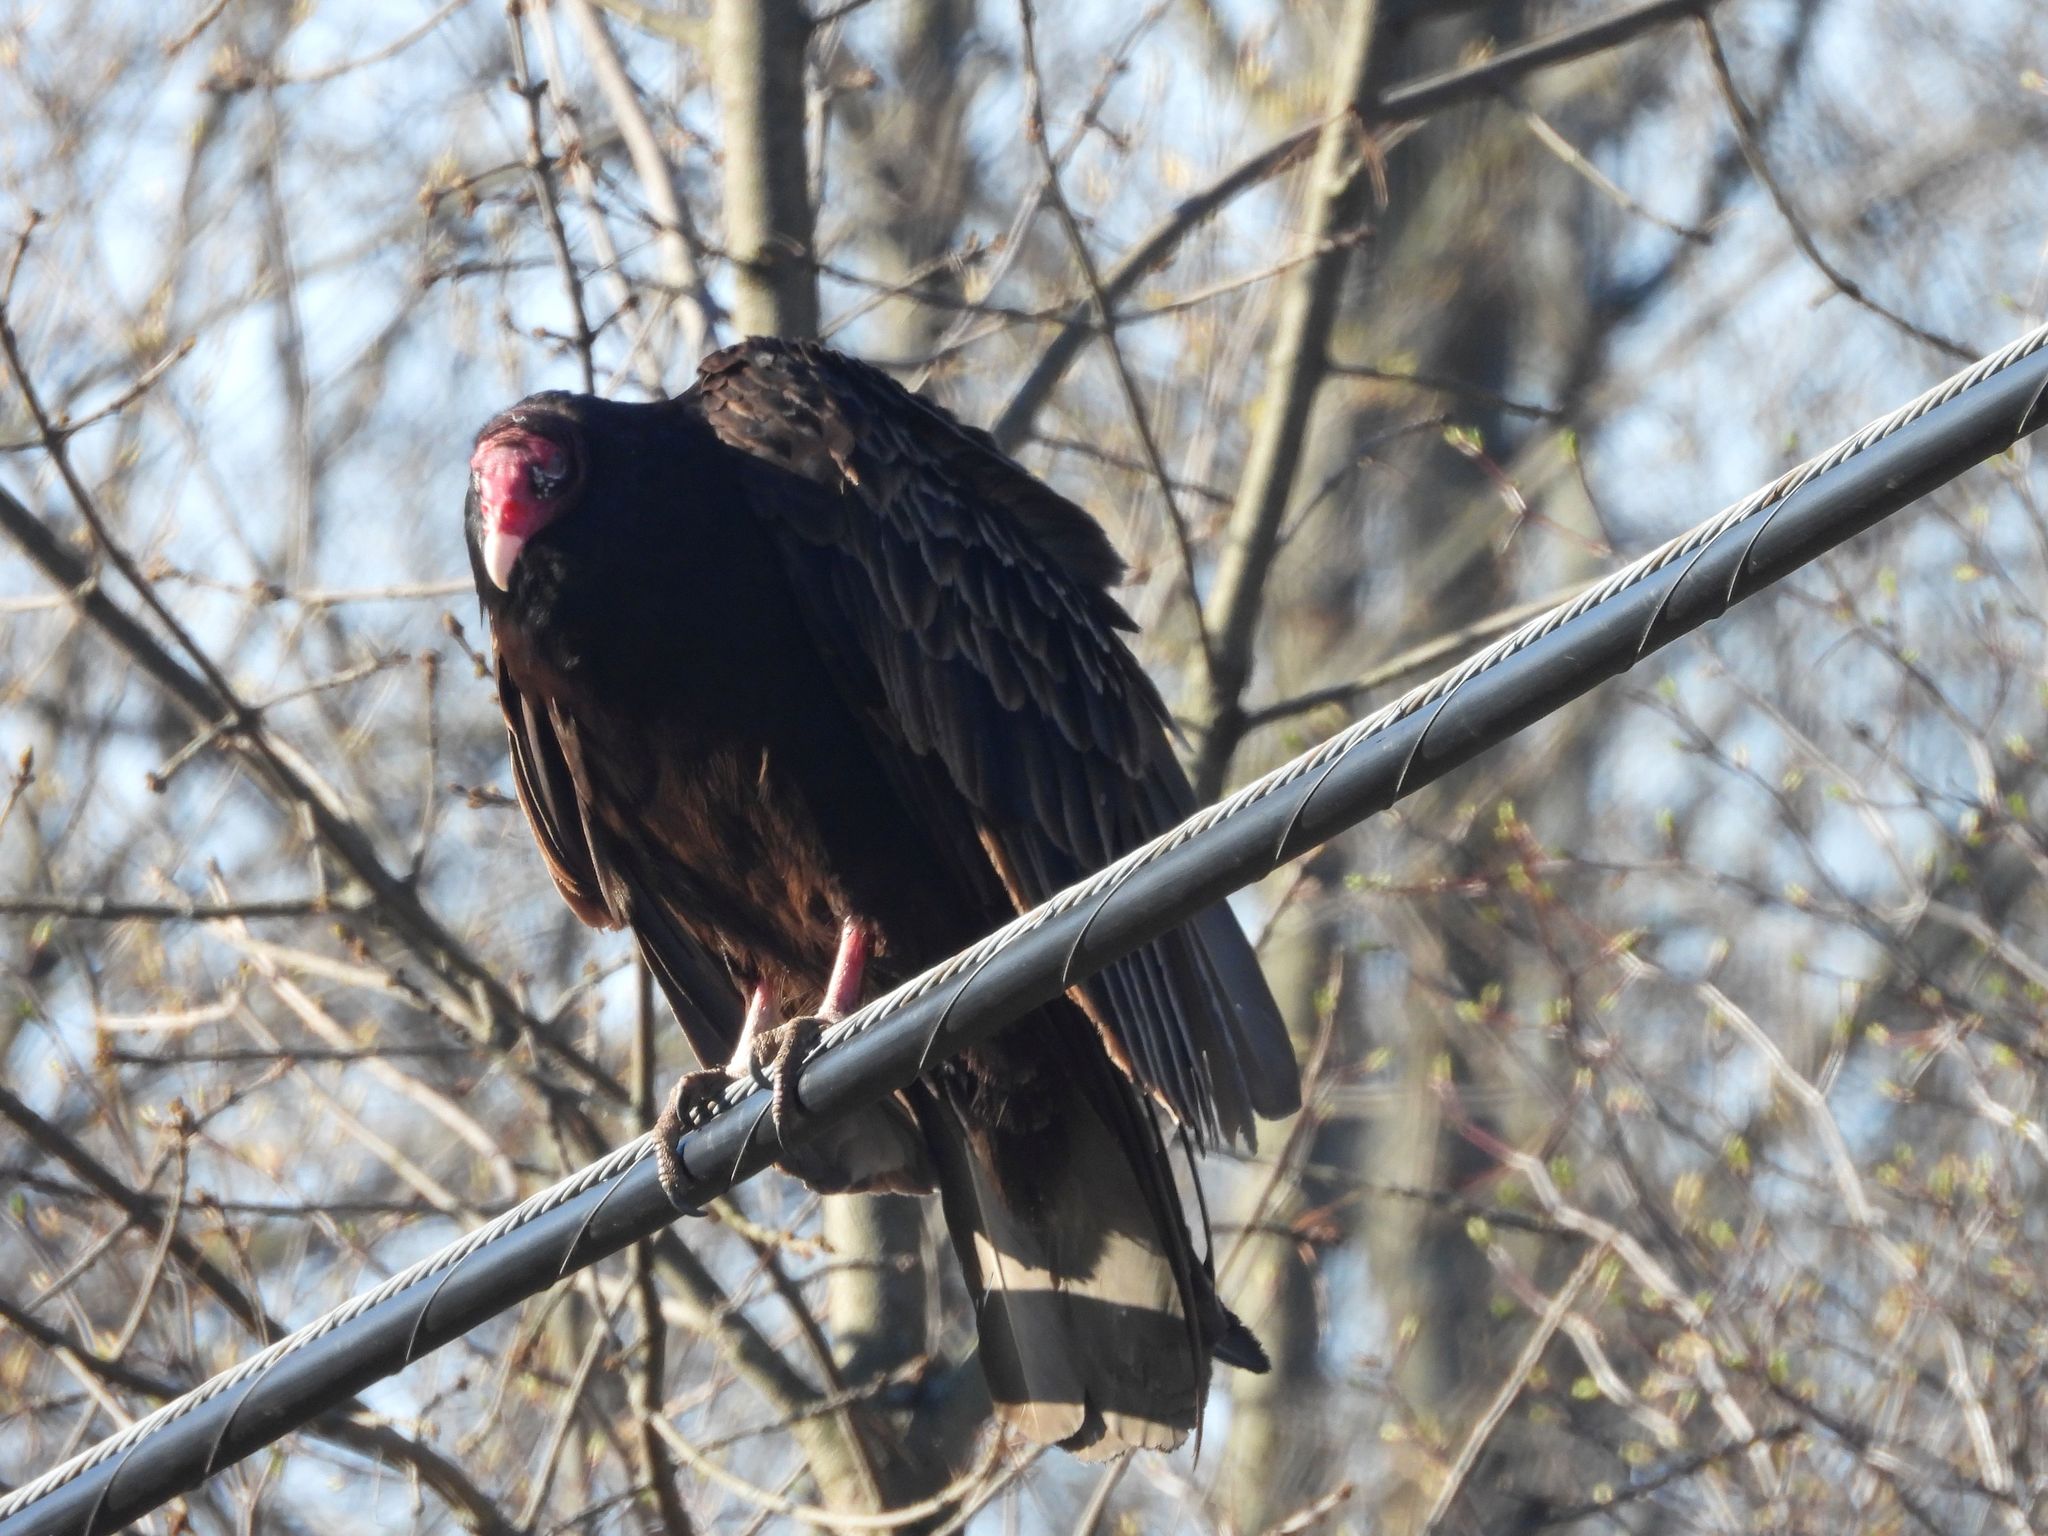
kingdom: Animalia
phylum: Chordata
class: Aves
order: Accipitriformes
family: Cathartidae
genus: Cathartes
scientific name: Cathartes aura
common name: Turkey vulture
